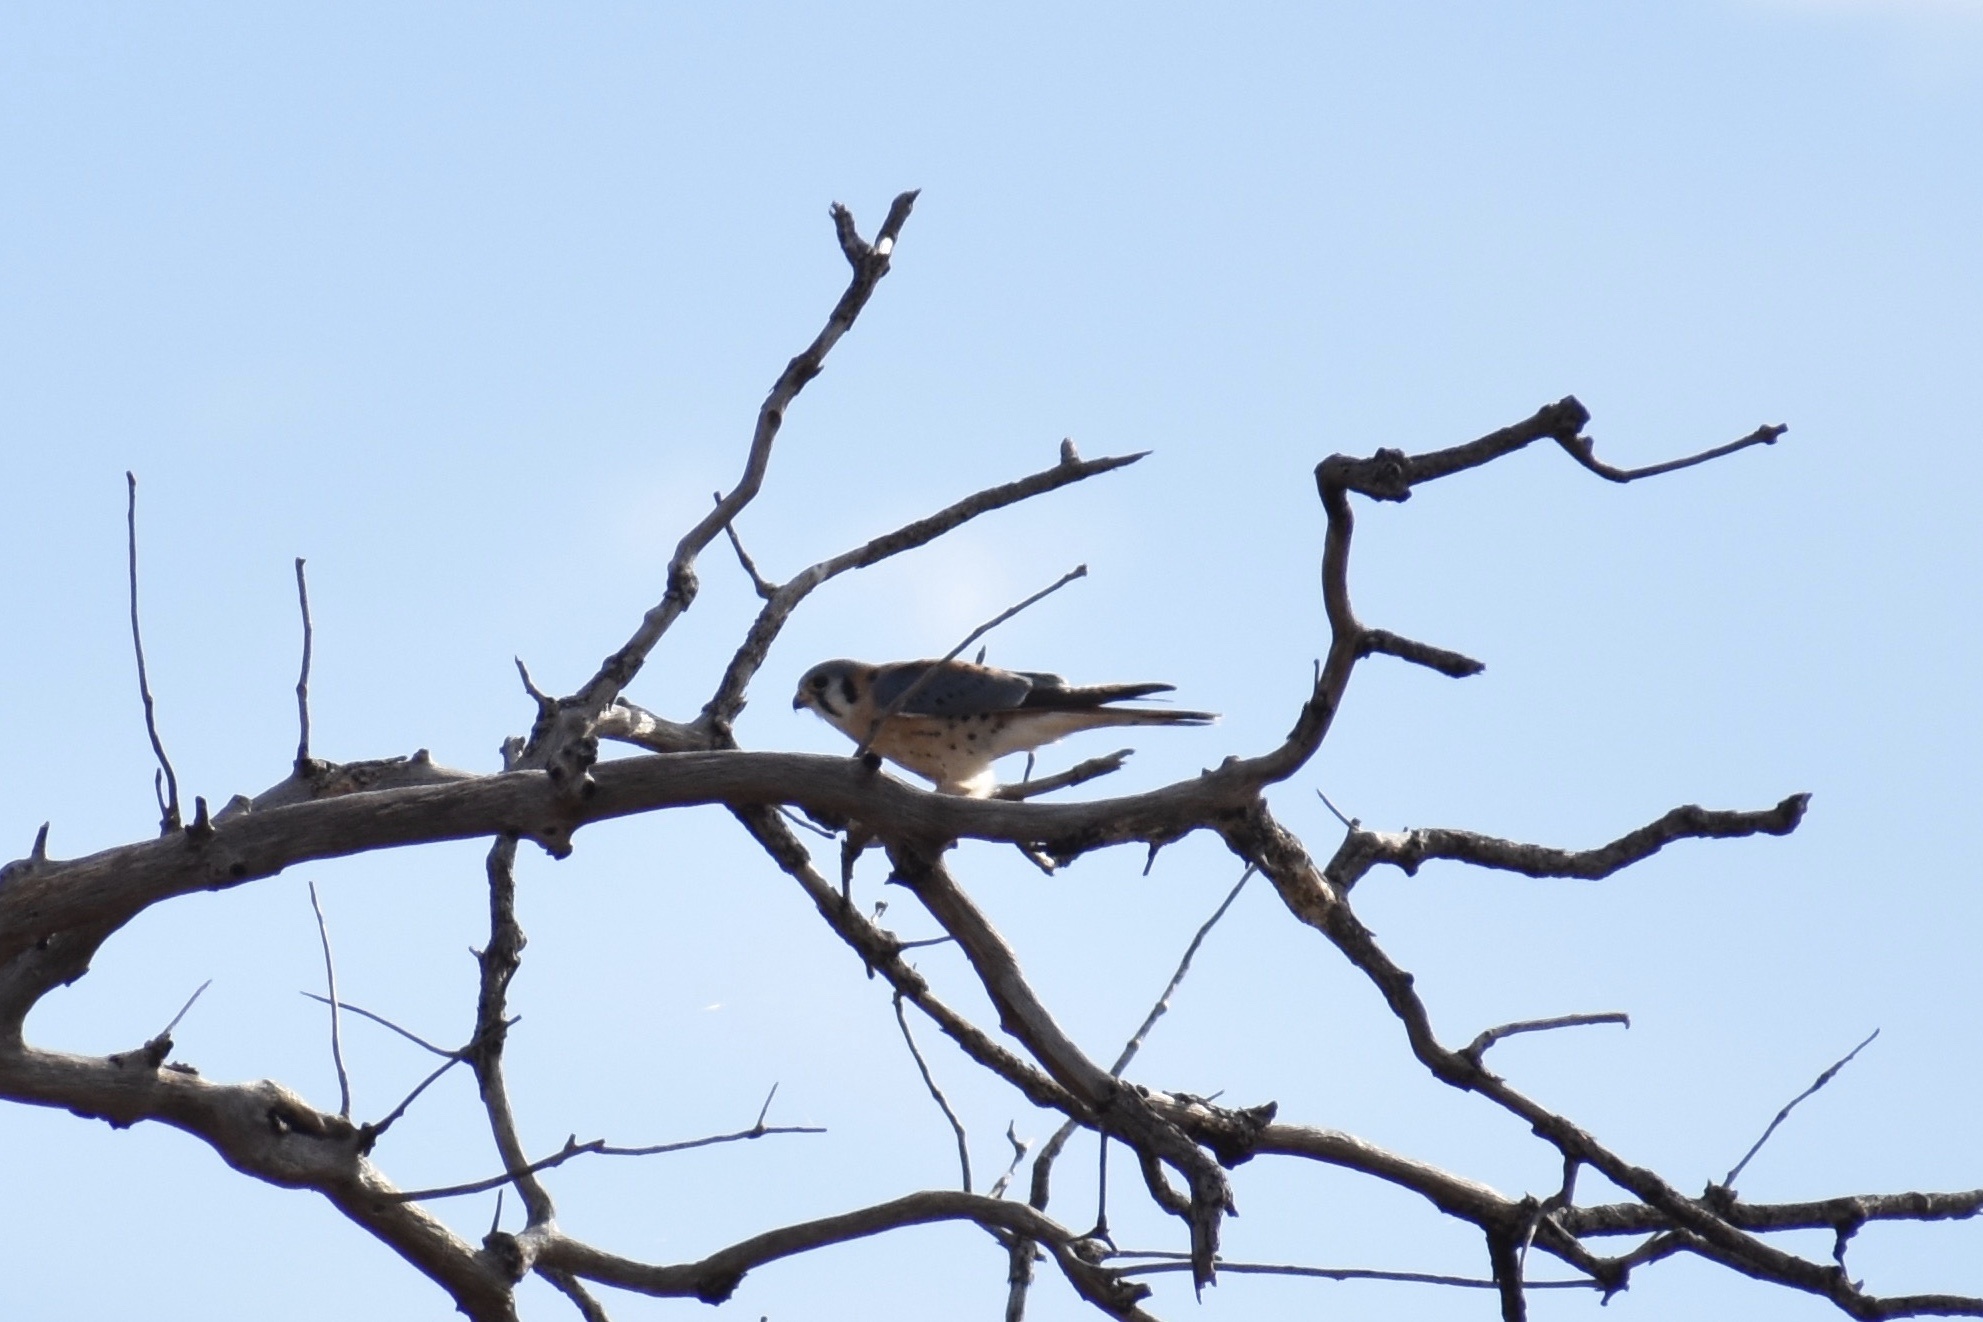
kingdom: Animalia
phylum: Chordata
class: Aves
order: Falconiformes
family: Falconidae
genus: Falco
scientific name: Falco sparverius
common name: American kestrel
